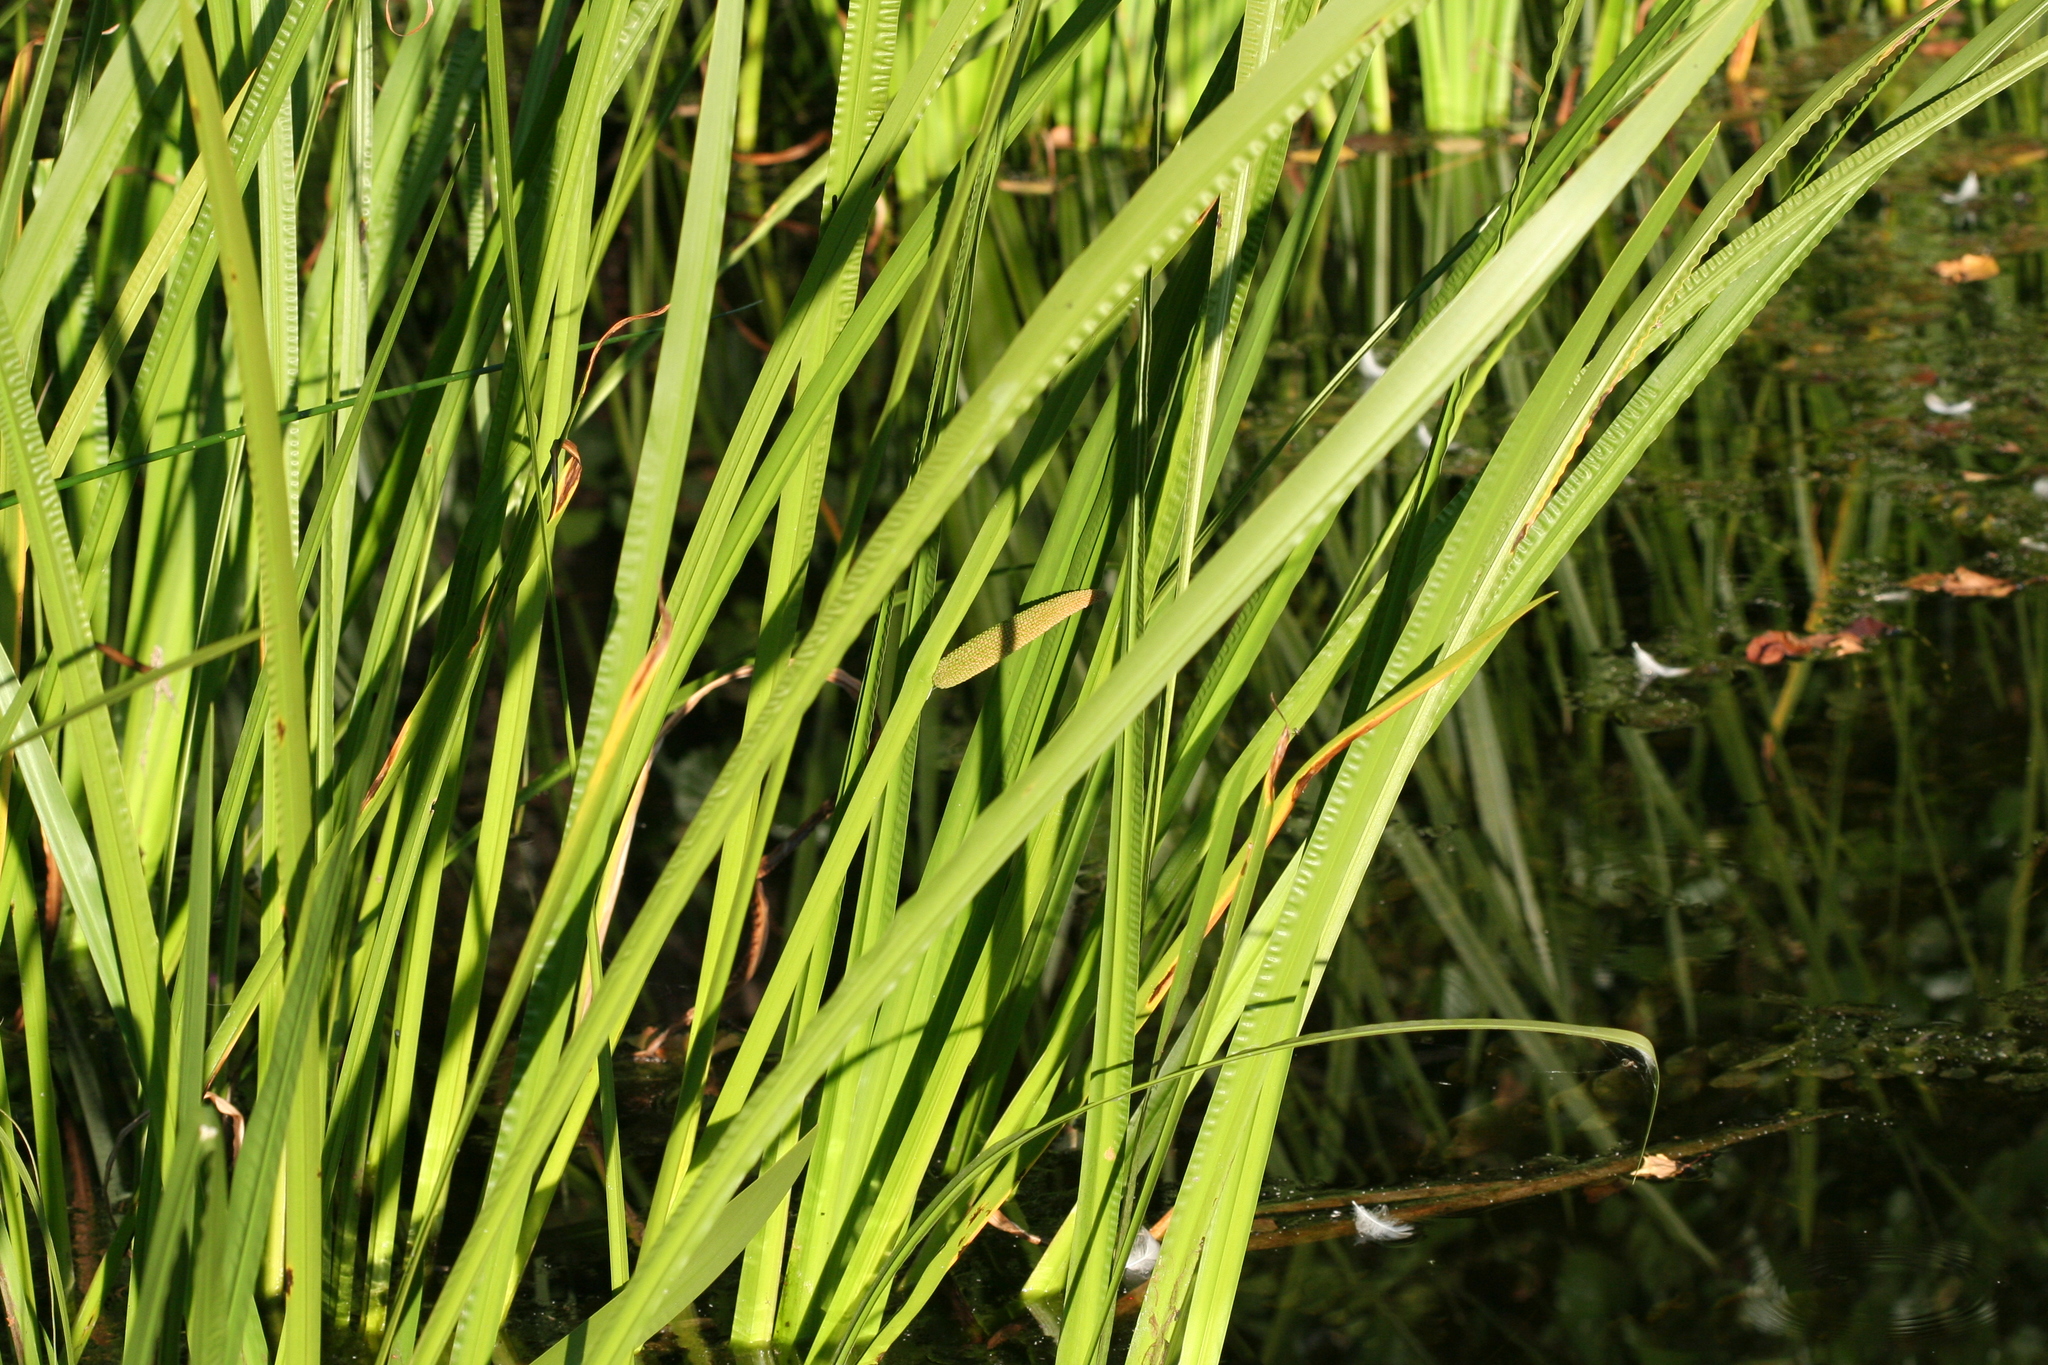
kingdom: Plantae
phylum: Tracheophyta
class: Liliopsida
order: Acorales
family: Acoraceae
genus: Acorus
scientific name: Acorus calamus
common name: Sweet-flag
